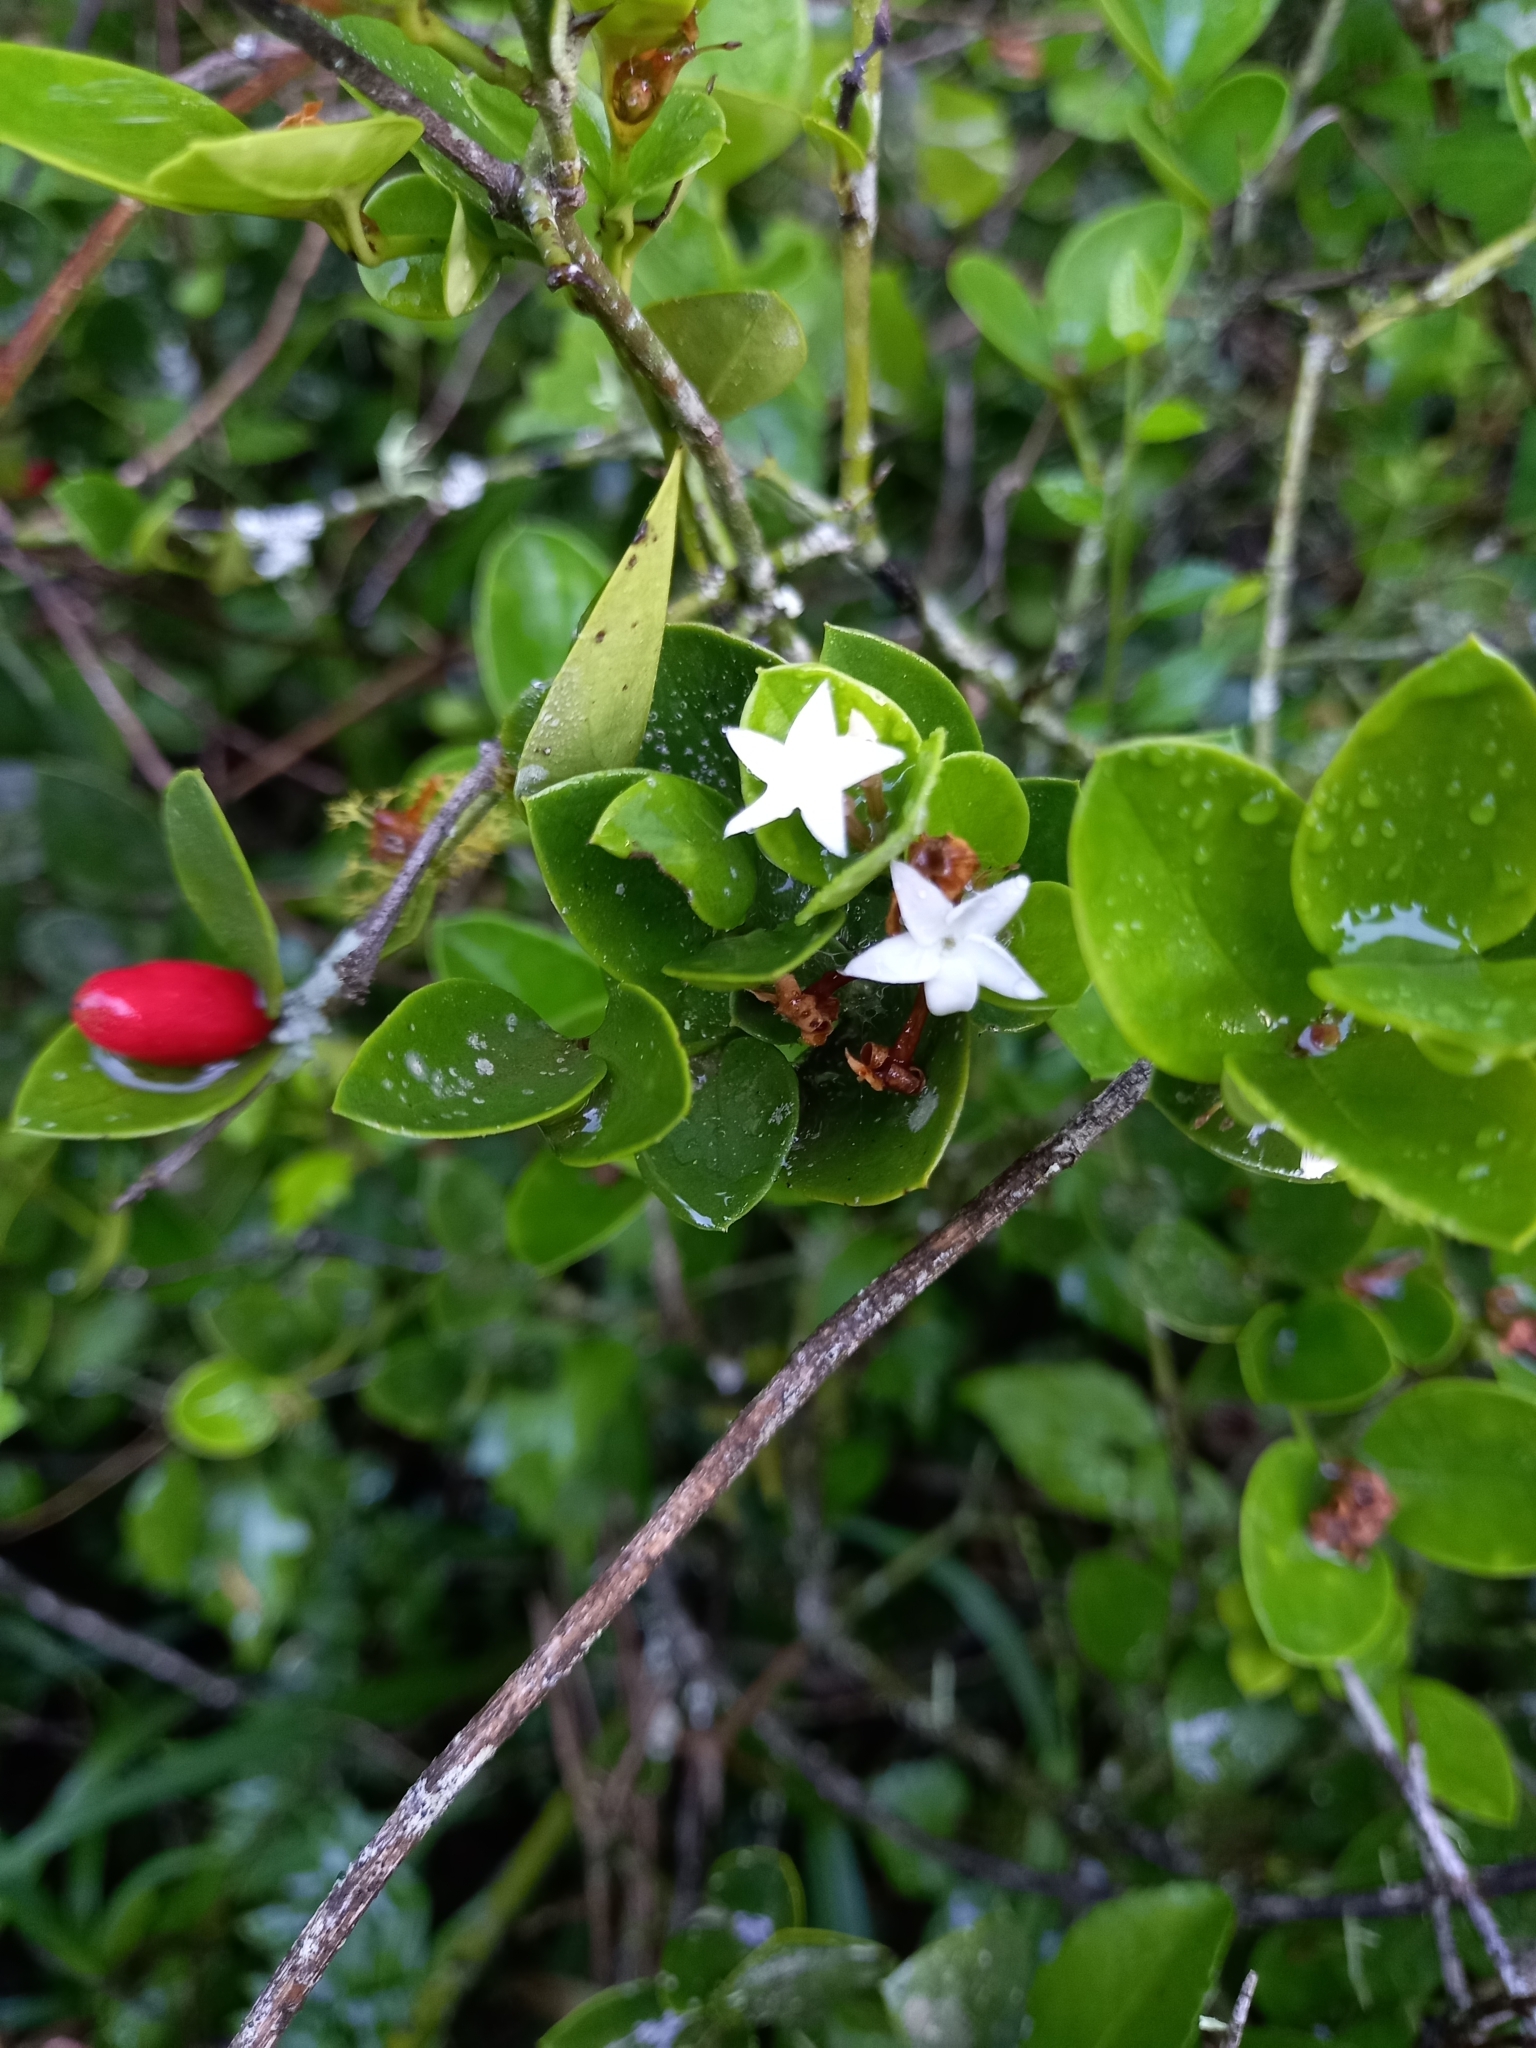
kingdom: Plantae
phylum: Tracheophyta
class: Magnoliopsida
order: Gentianales
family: Apocynaceae
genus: Carissa
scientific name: Carissa bispinosa
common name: Forest num-num
